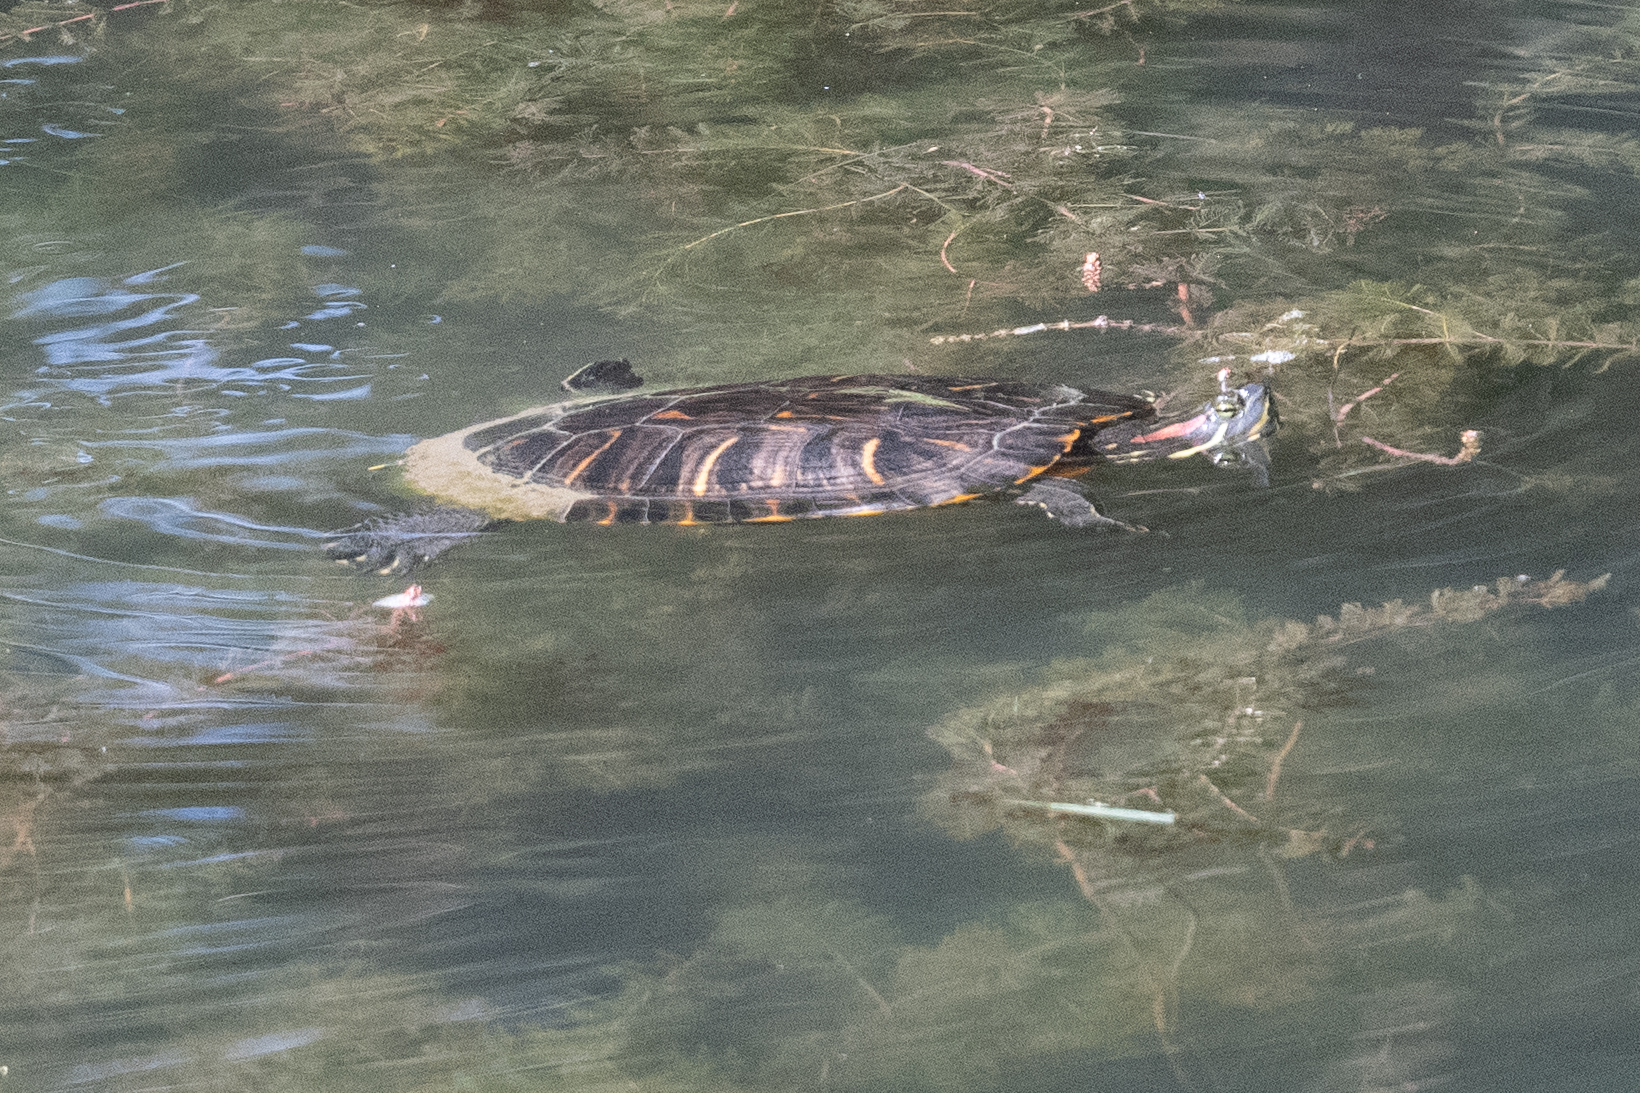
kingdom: Animalia
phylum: Chordata
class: Testudines
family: Emydidae
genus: Trachemys
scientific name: Trachemys scripta
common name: Slider
